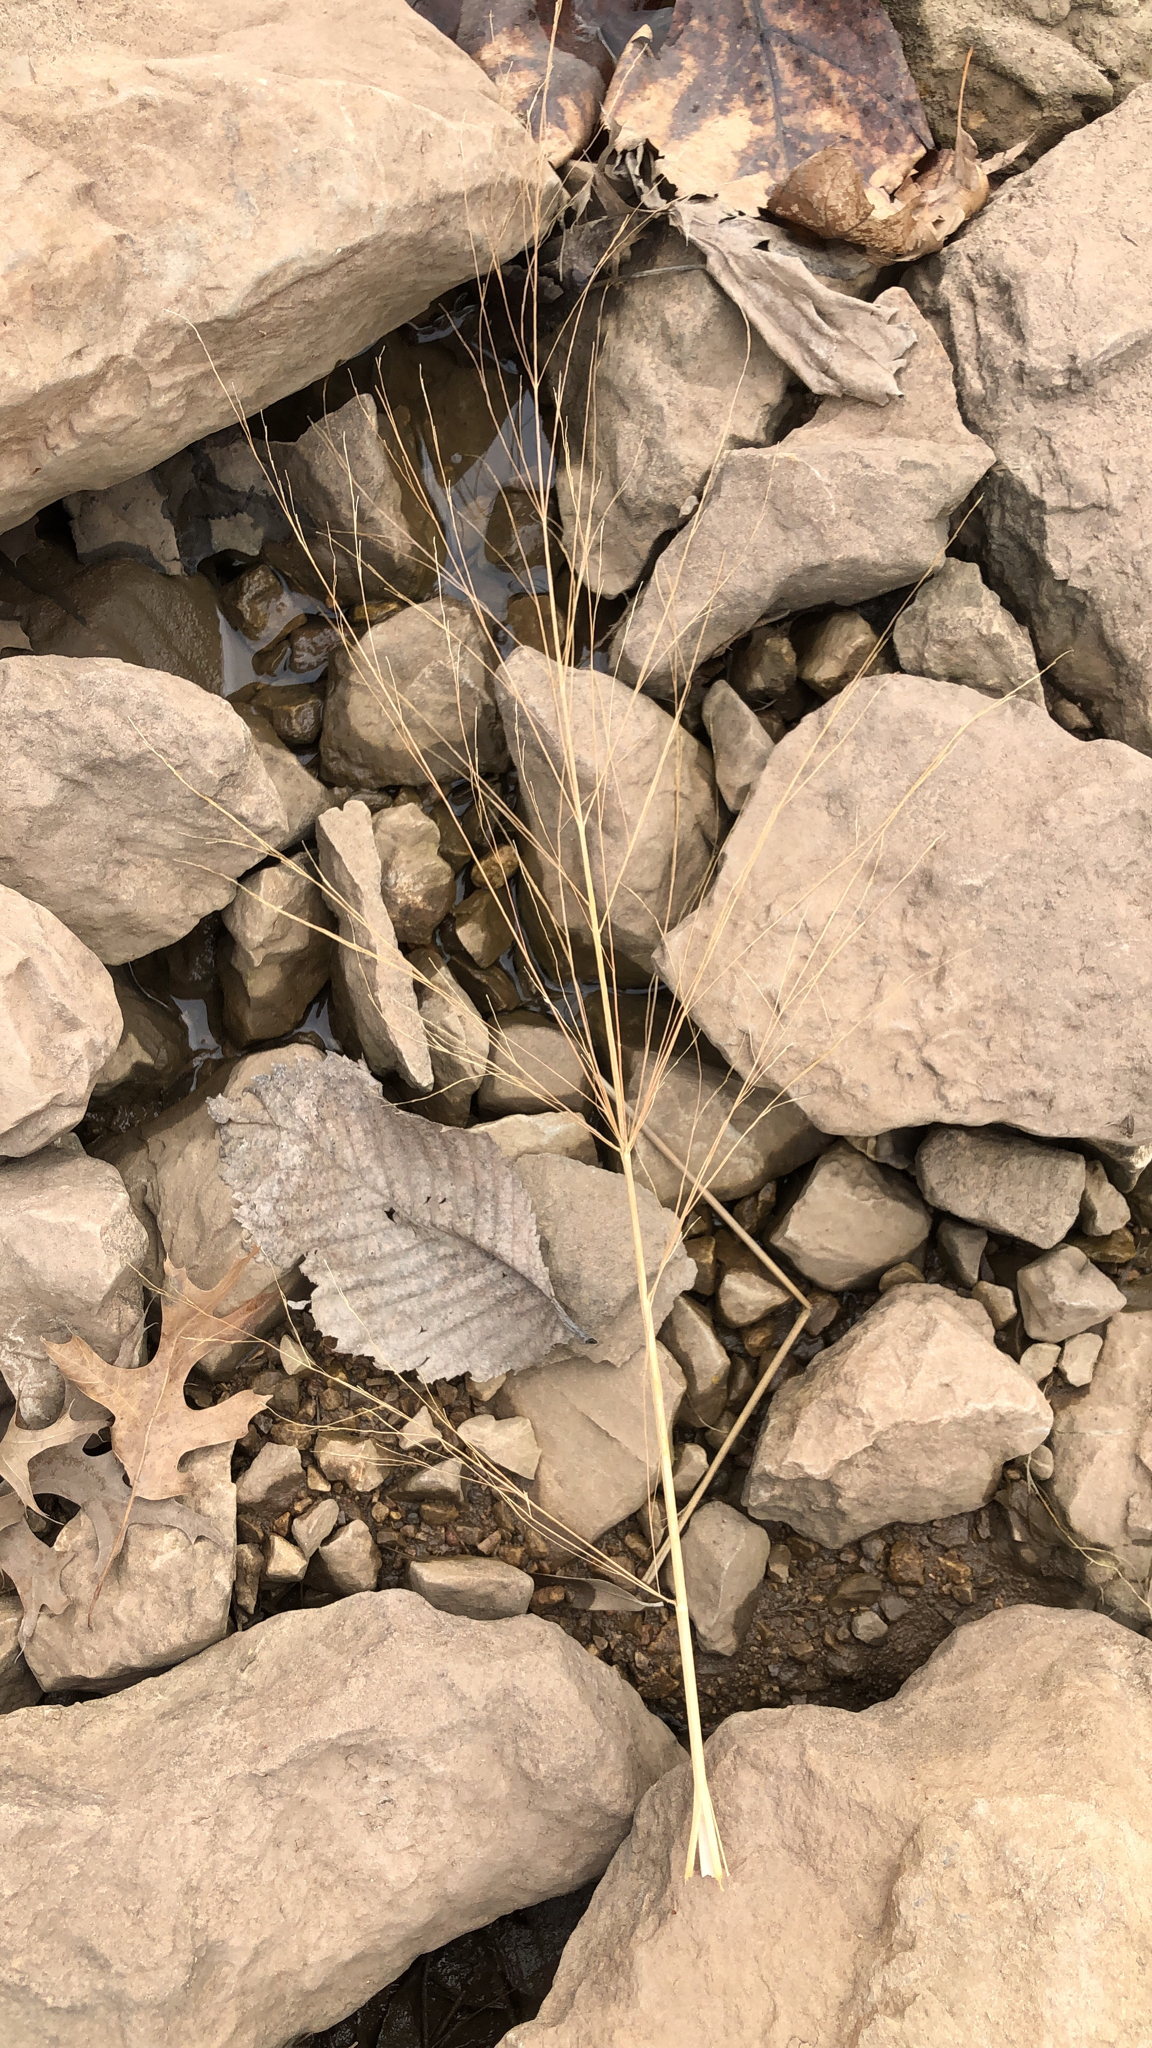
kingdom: Plantae
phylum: Tracheophyta
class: Liliopsida
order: Poales
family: Poaceae
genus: Panicum
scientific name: Panicum virgatum
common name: Switchgrass
